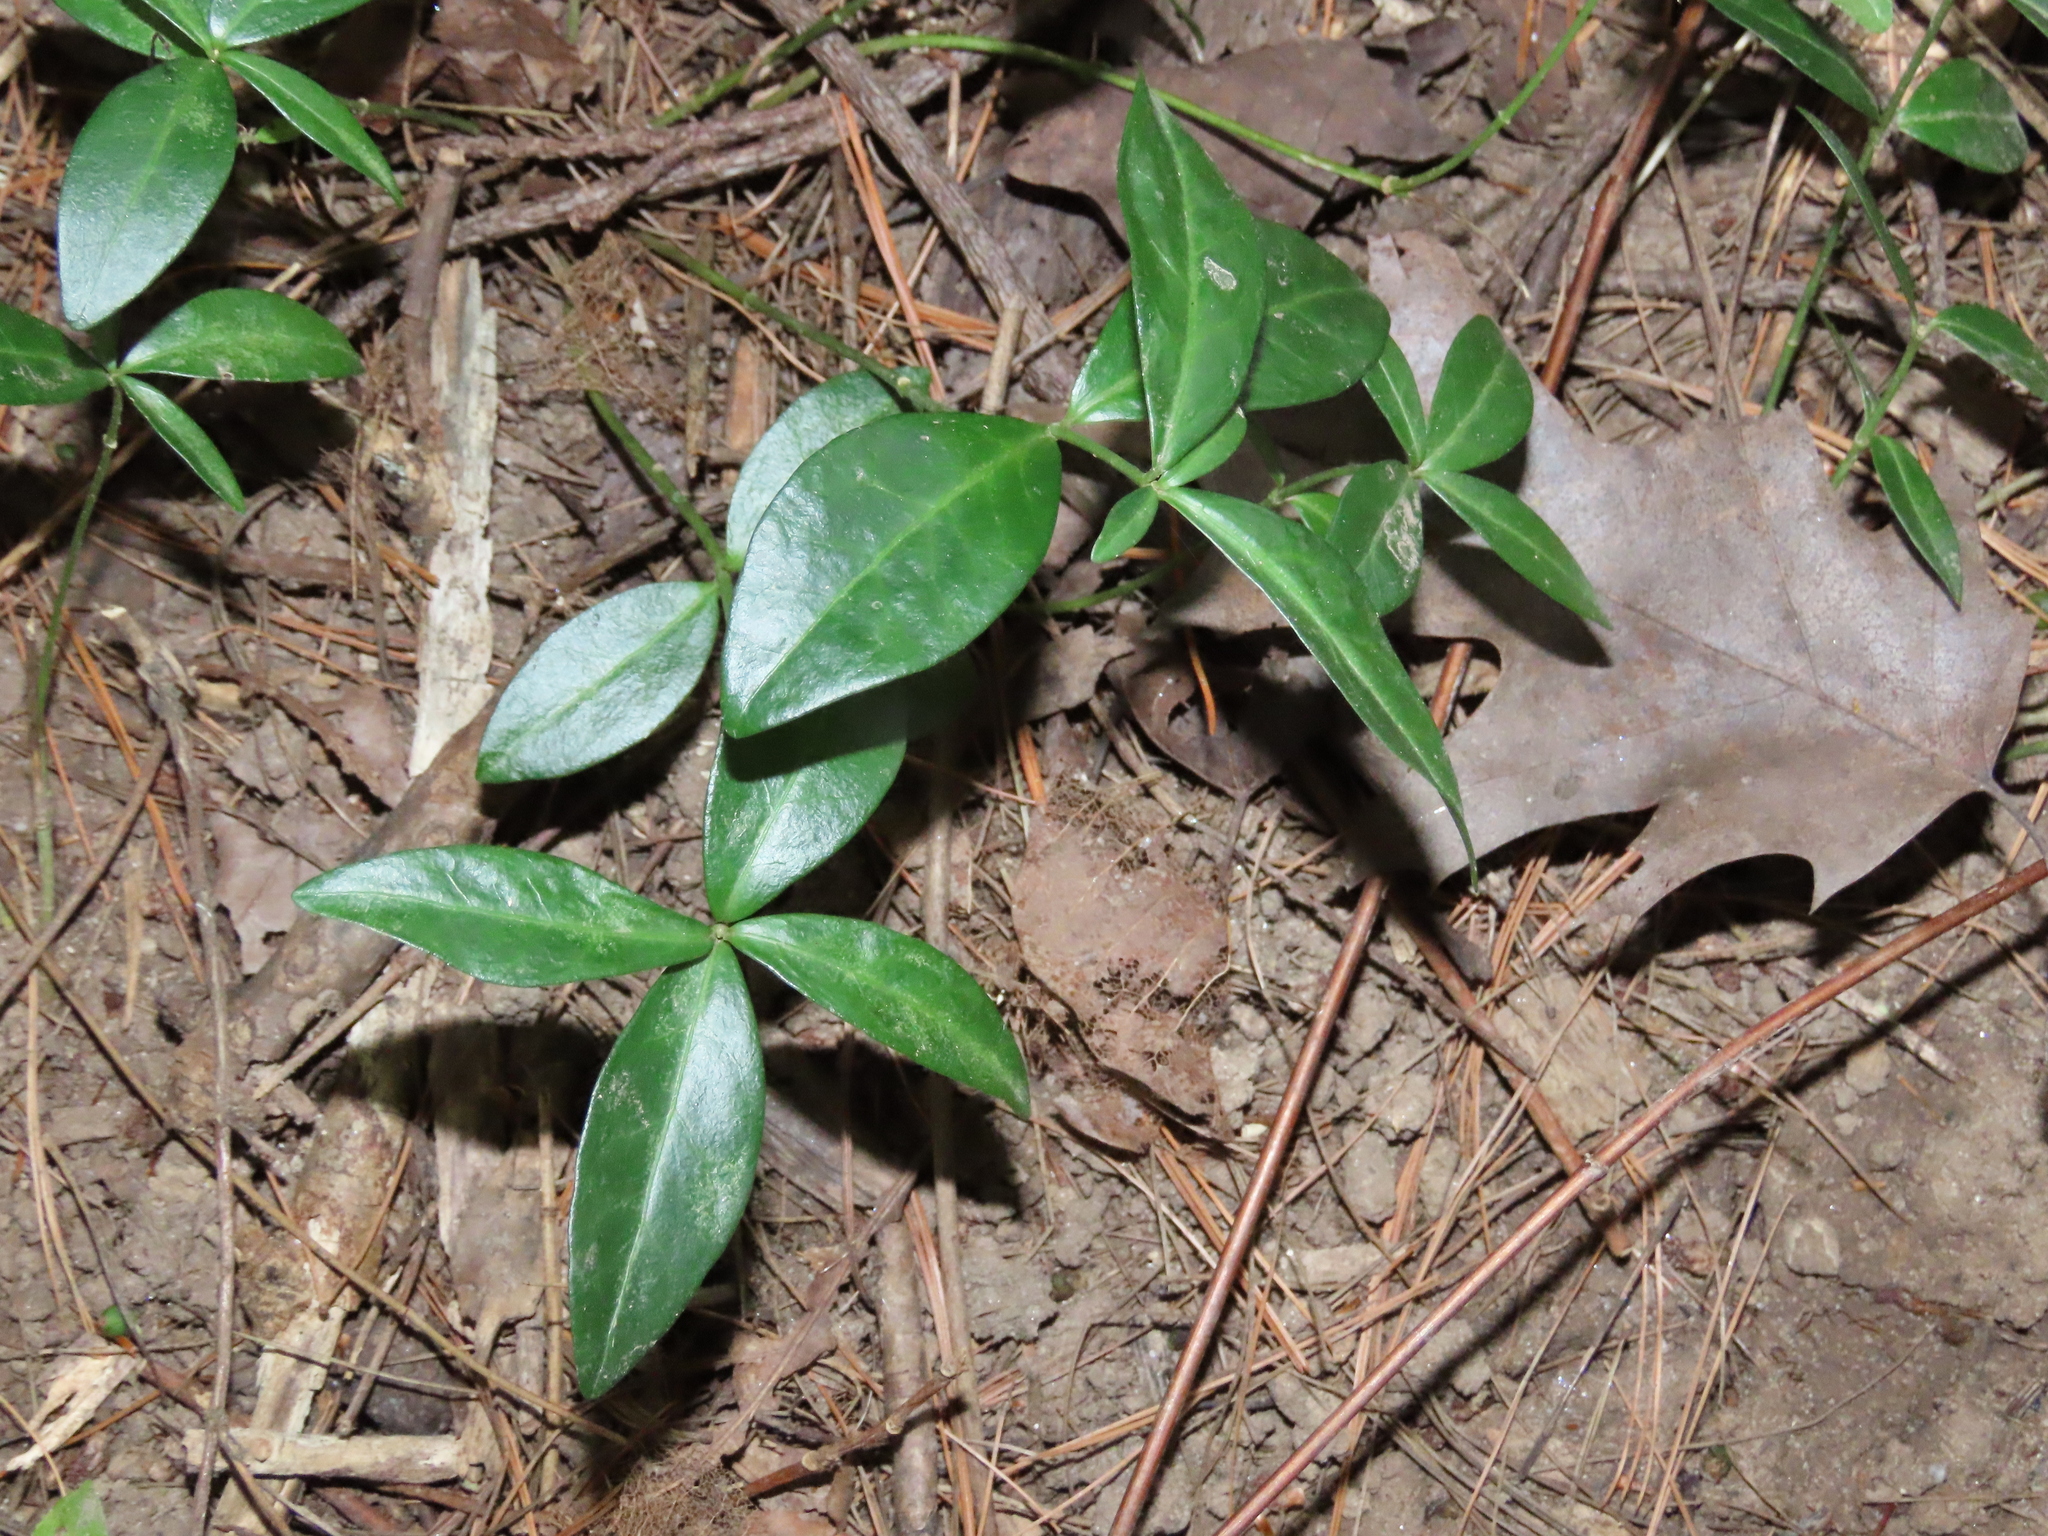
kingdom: Plantae
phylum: Tracheophyta
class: Magnoliopsida
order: Gentianales
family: Apocynaceae
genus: Vinca
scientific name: Vinca minor
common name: Lesser periwinkle
